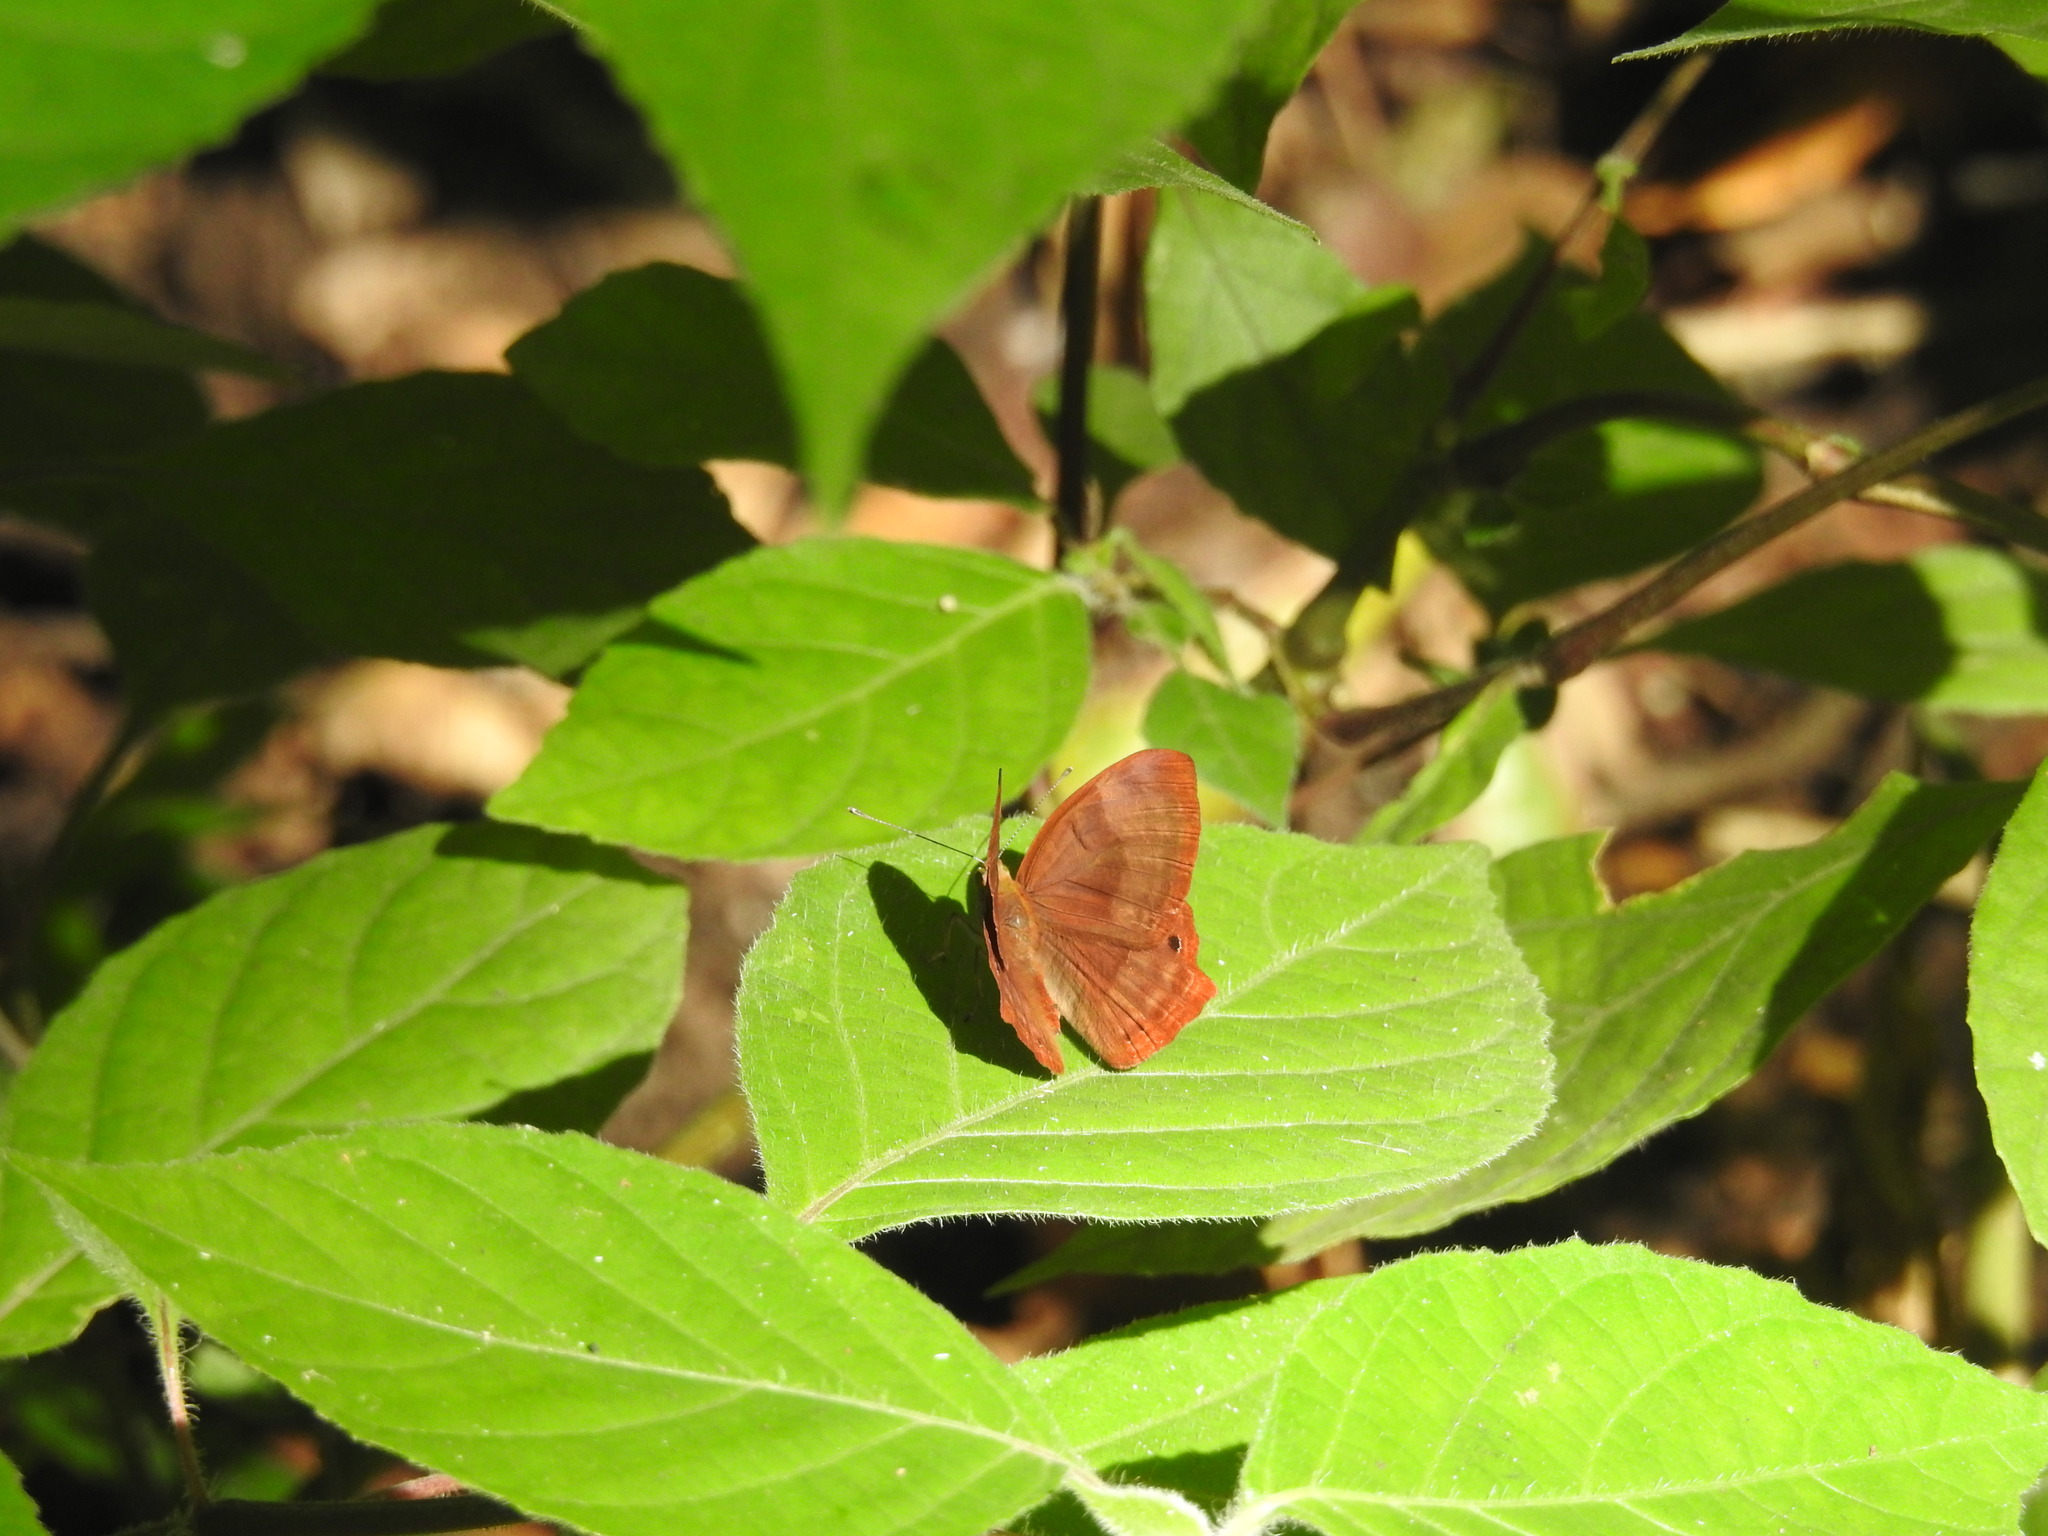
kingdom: Animalia
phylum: Arthropoda
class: Insecta
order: Lepidoptera
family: Lycaenidae
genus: Abisara
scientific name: Abisara bifasciata
